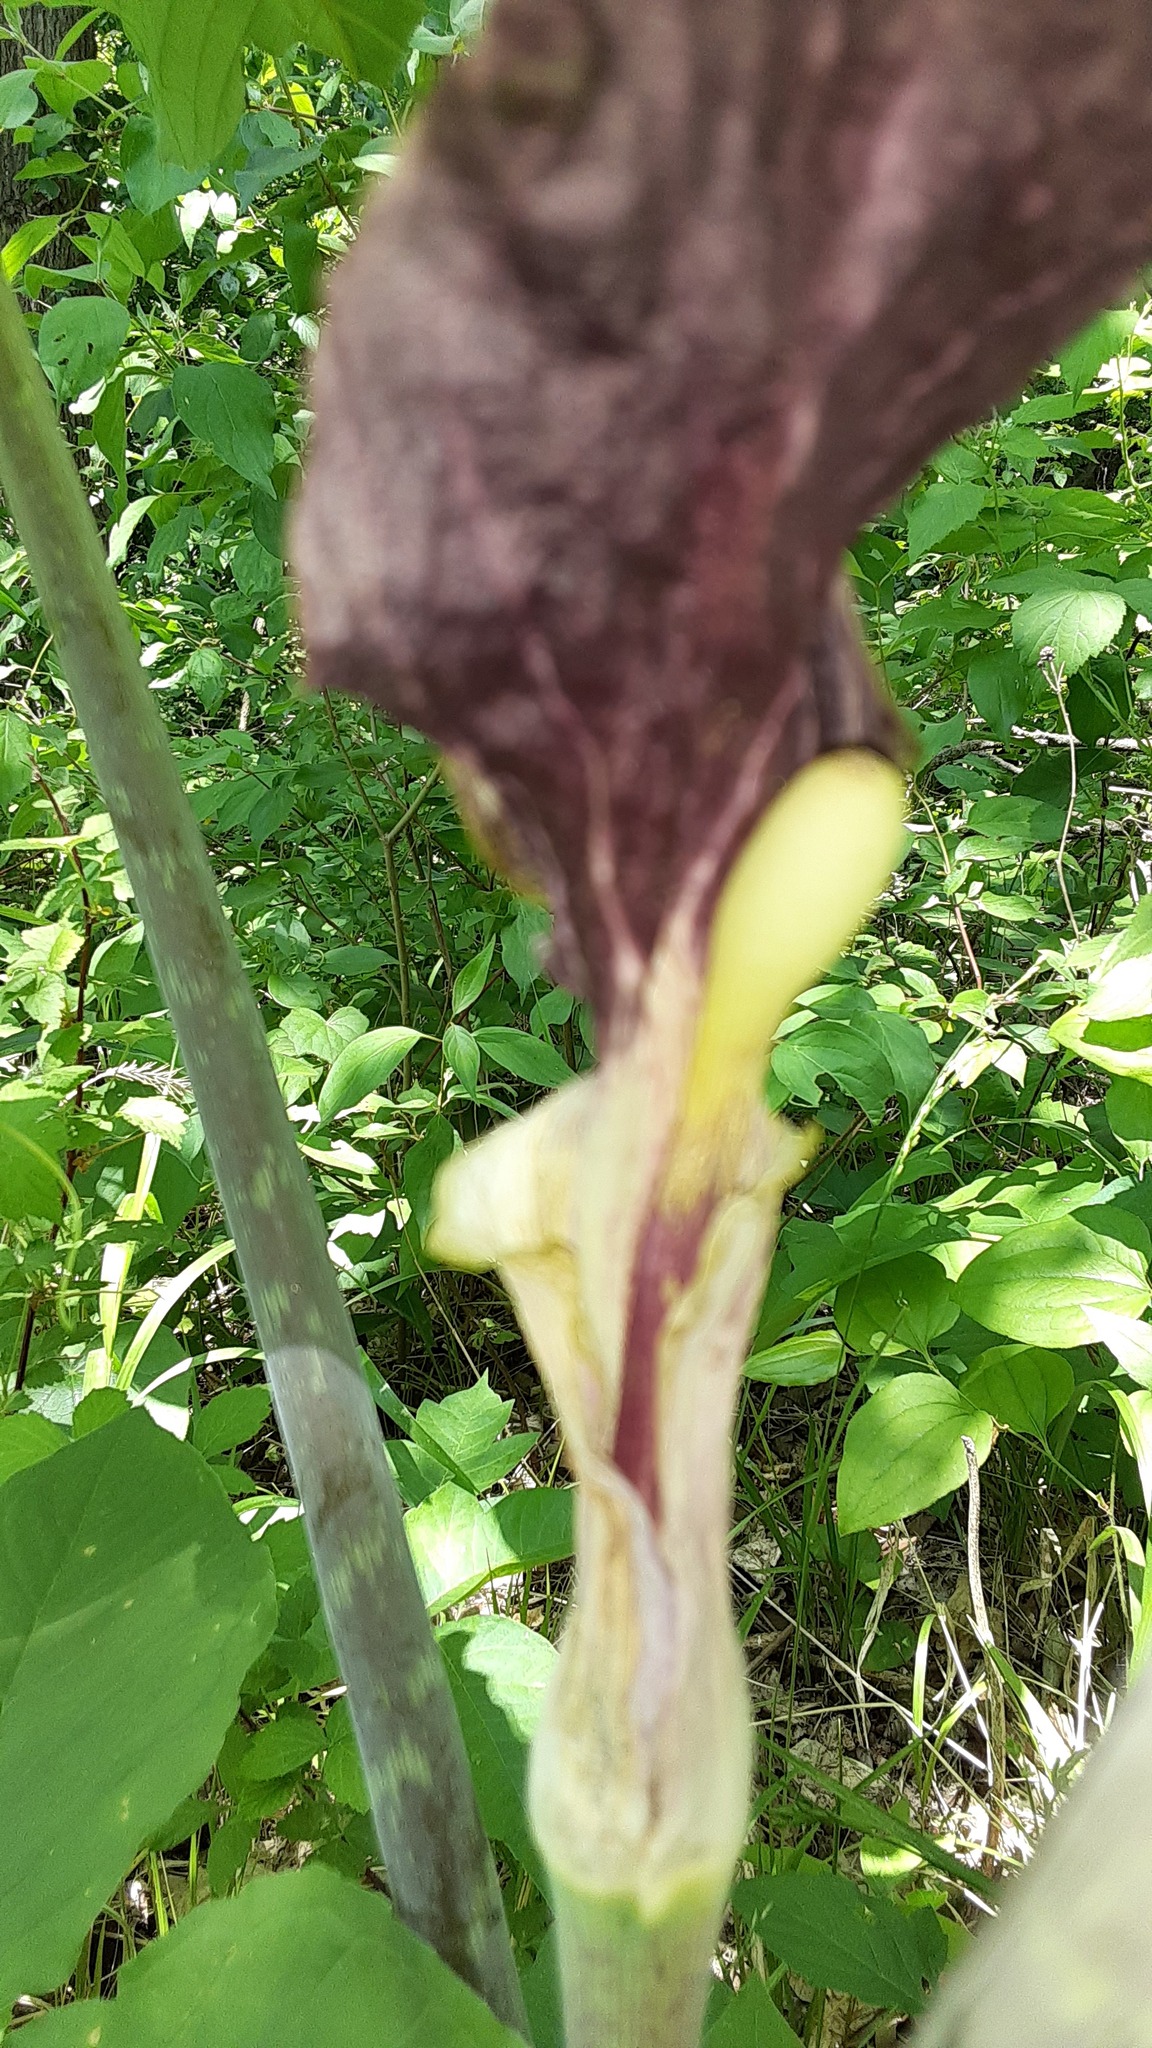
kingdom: Plantae
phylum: Tracheophyta
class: Liliopsida
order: Alismatales
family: Araceae
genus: Arisaema
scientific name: Arisaema triphyllum
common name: Jack-in-the-pulpit
